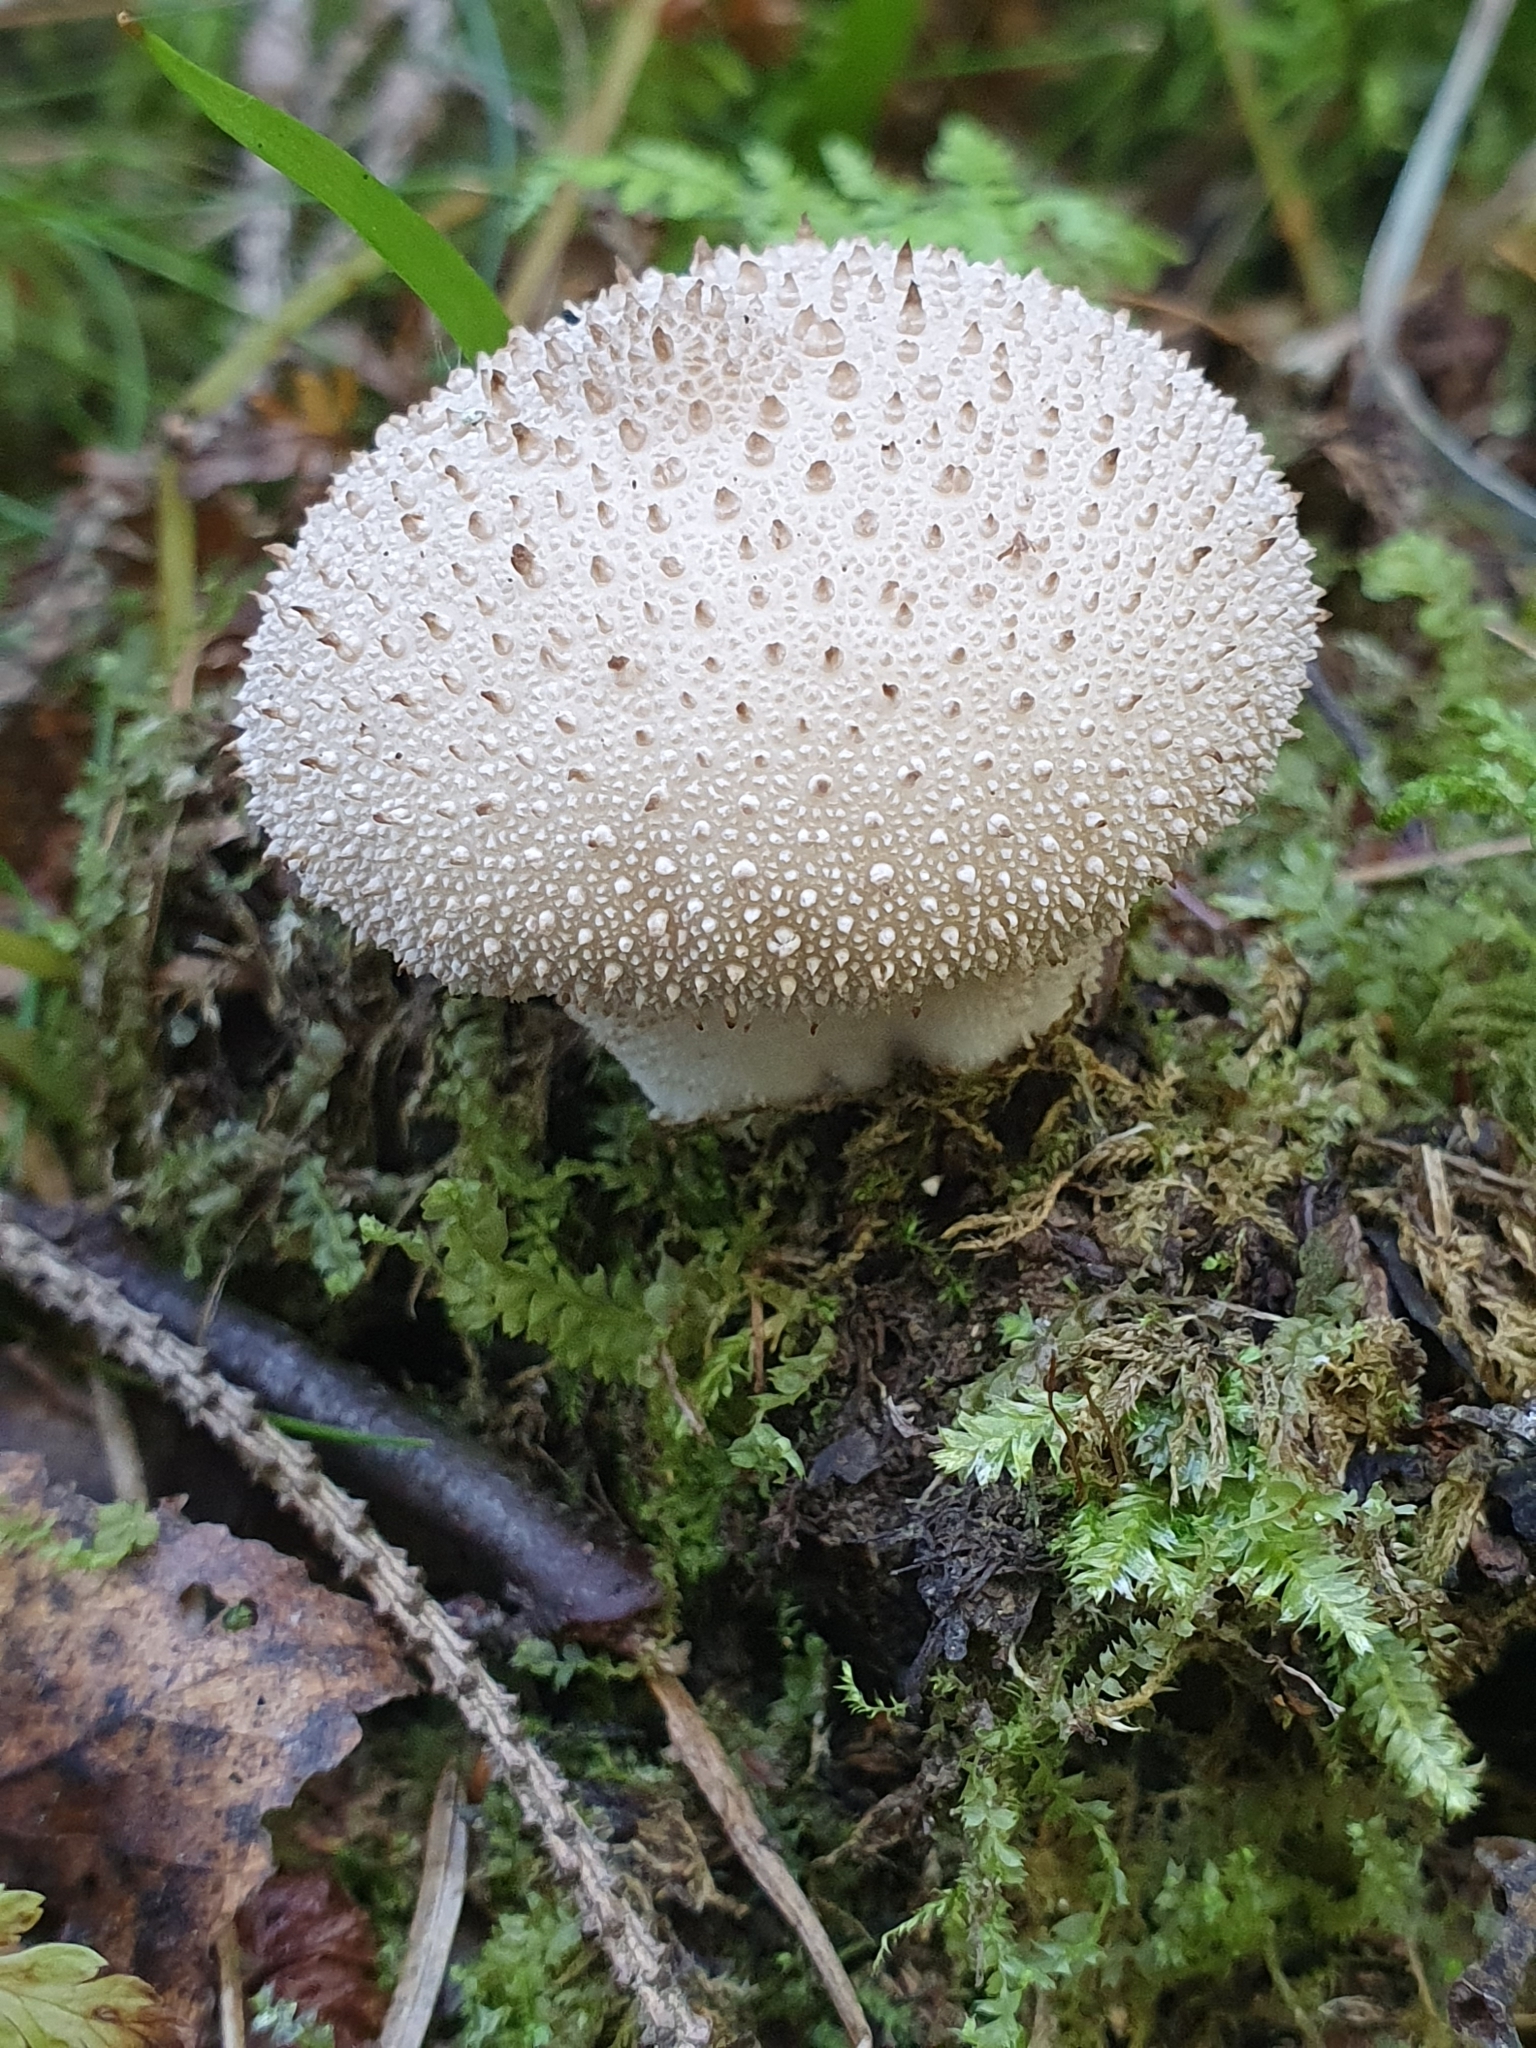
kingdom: Fungi
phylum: Basidiomycota
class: Agaricomycetes
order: Agaricales
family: Lycoperdaceae
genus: Lycoperdon
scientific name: Lycoperdon perlatum
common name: Common puffball
